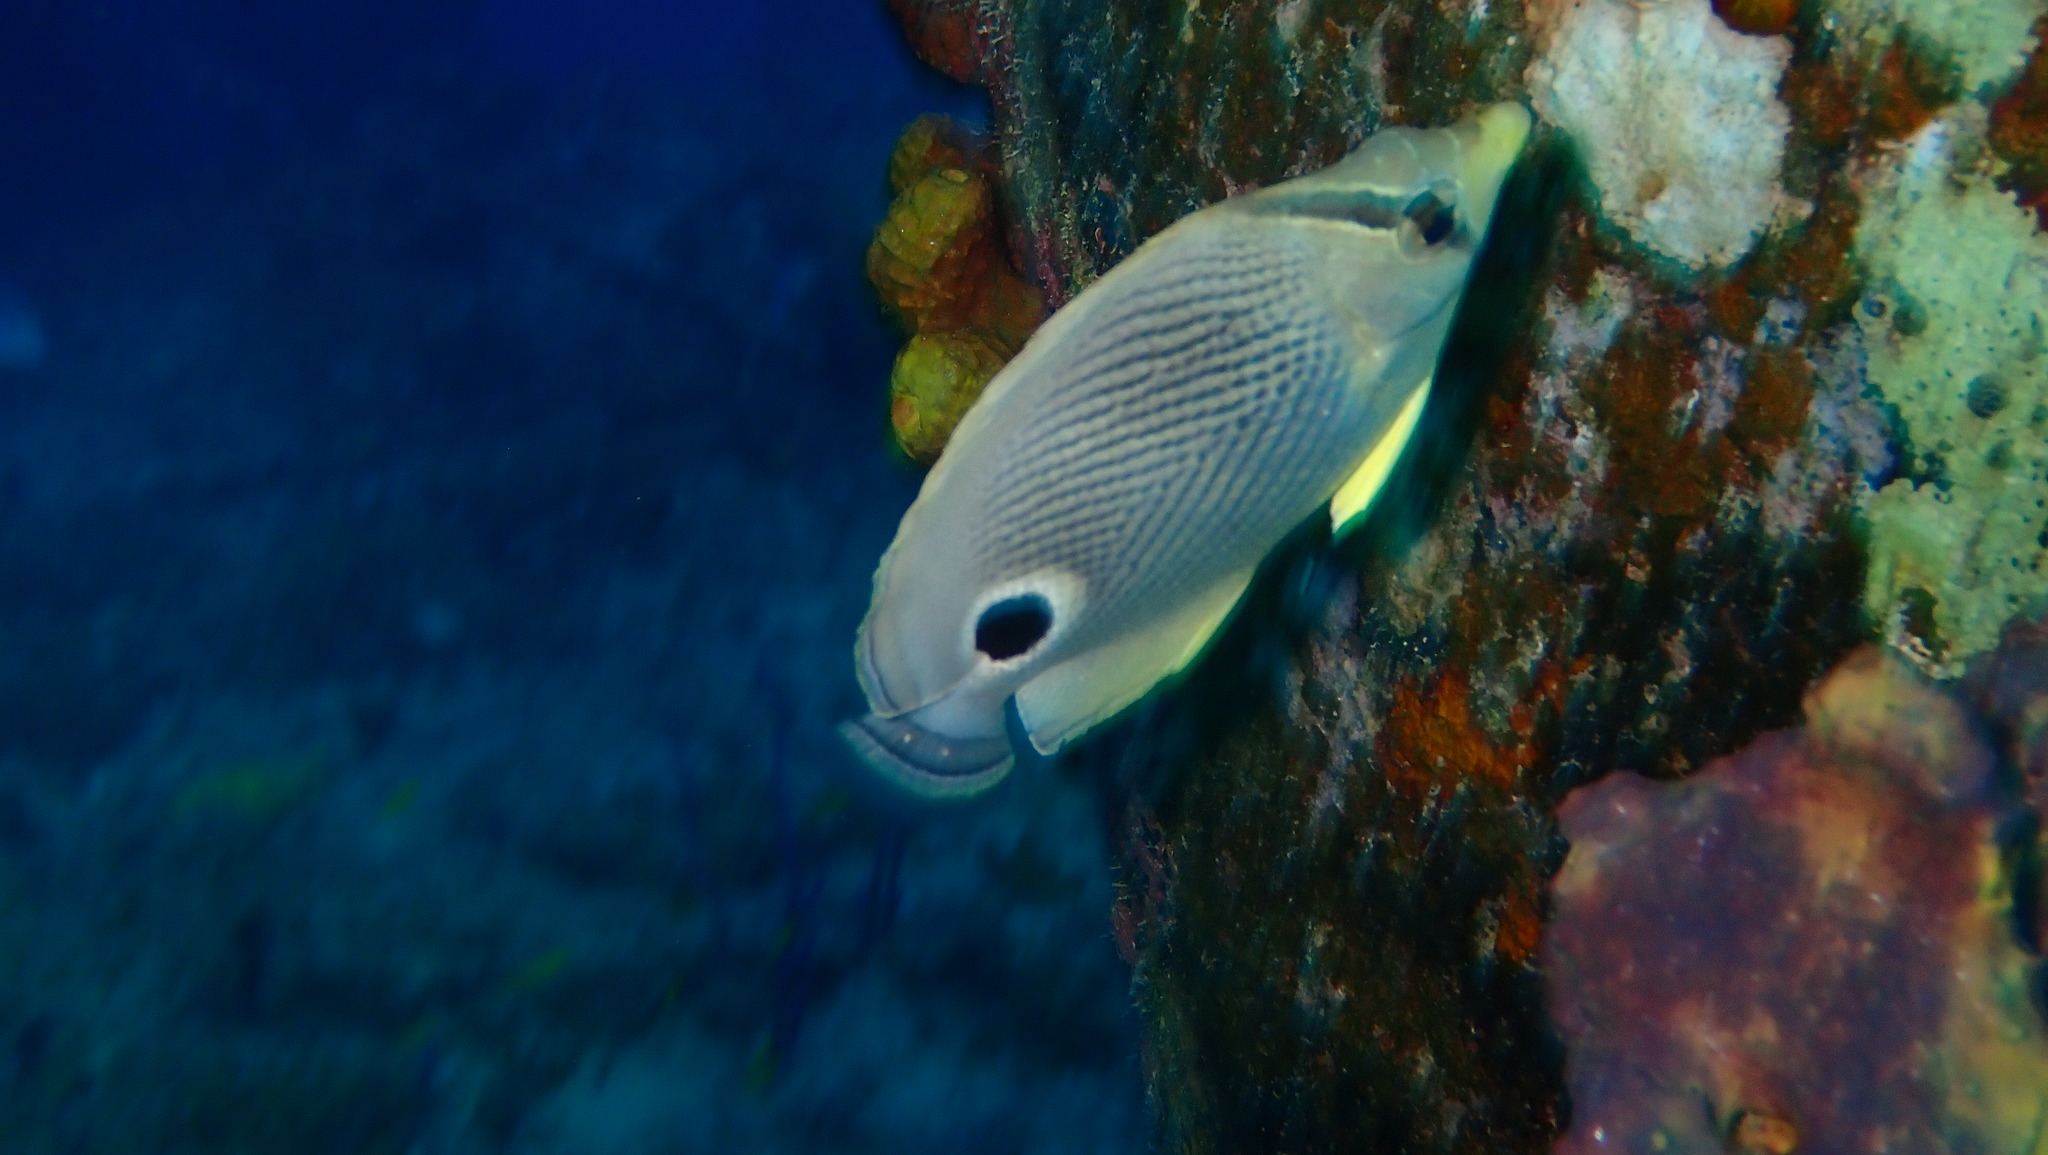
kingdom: Animalia
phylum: Chordata
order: Perciformes
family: Chaetodontidae
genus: Chaetodon
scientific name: Chaetodon capistratus
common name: Kete
